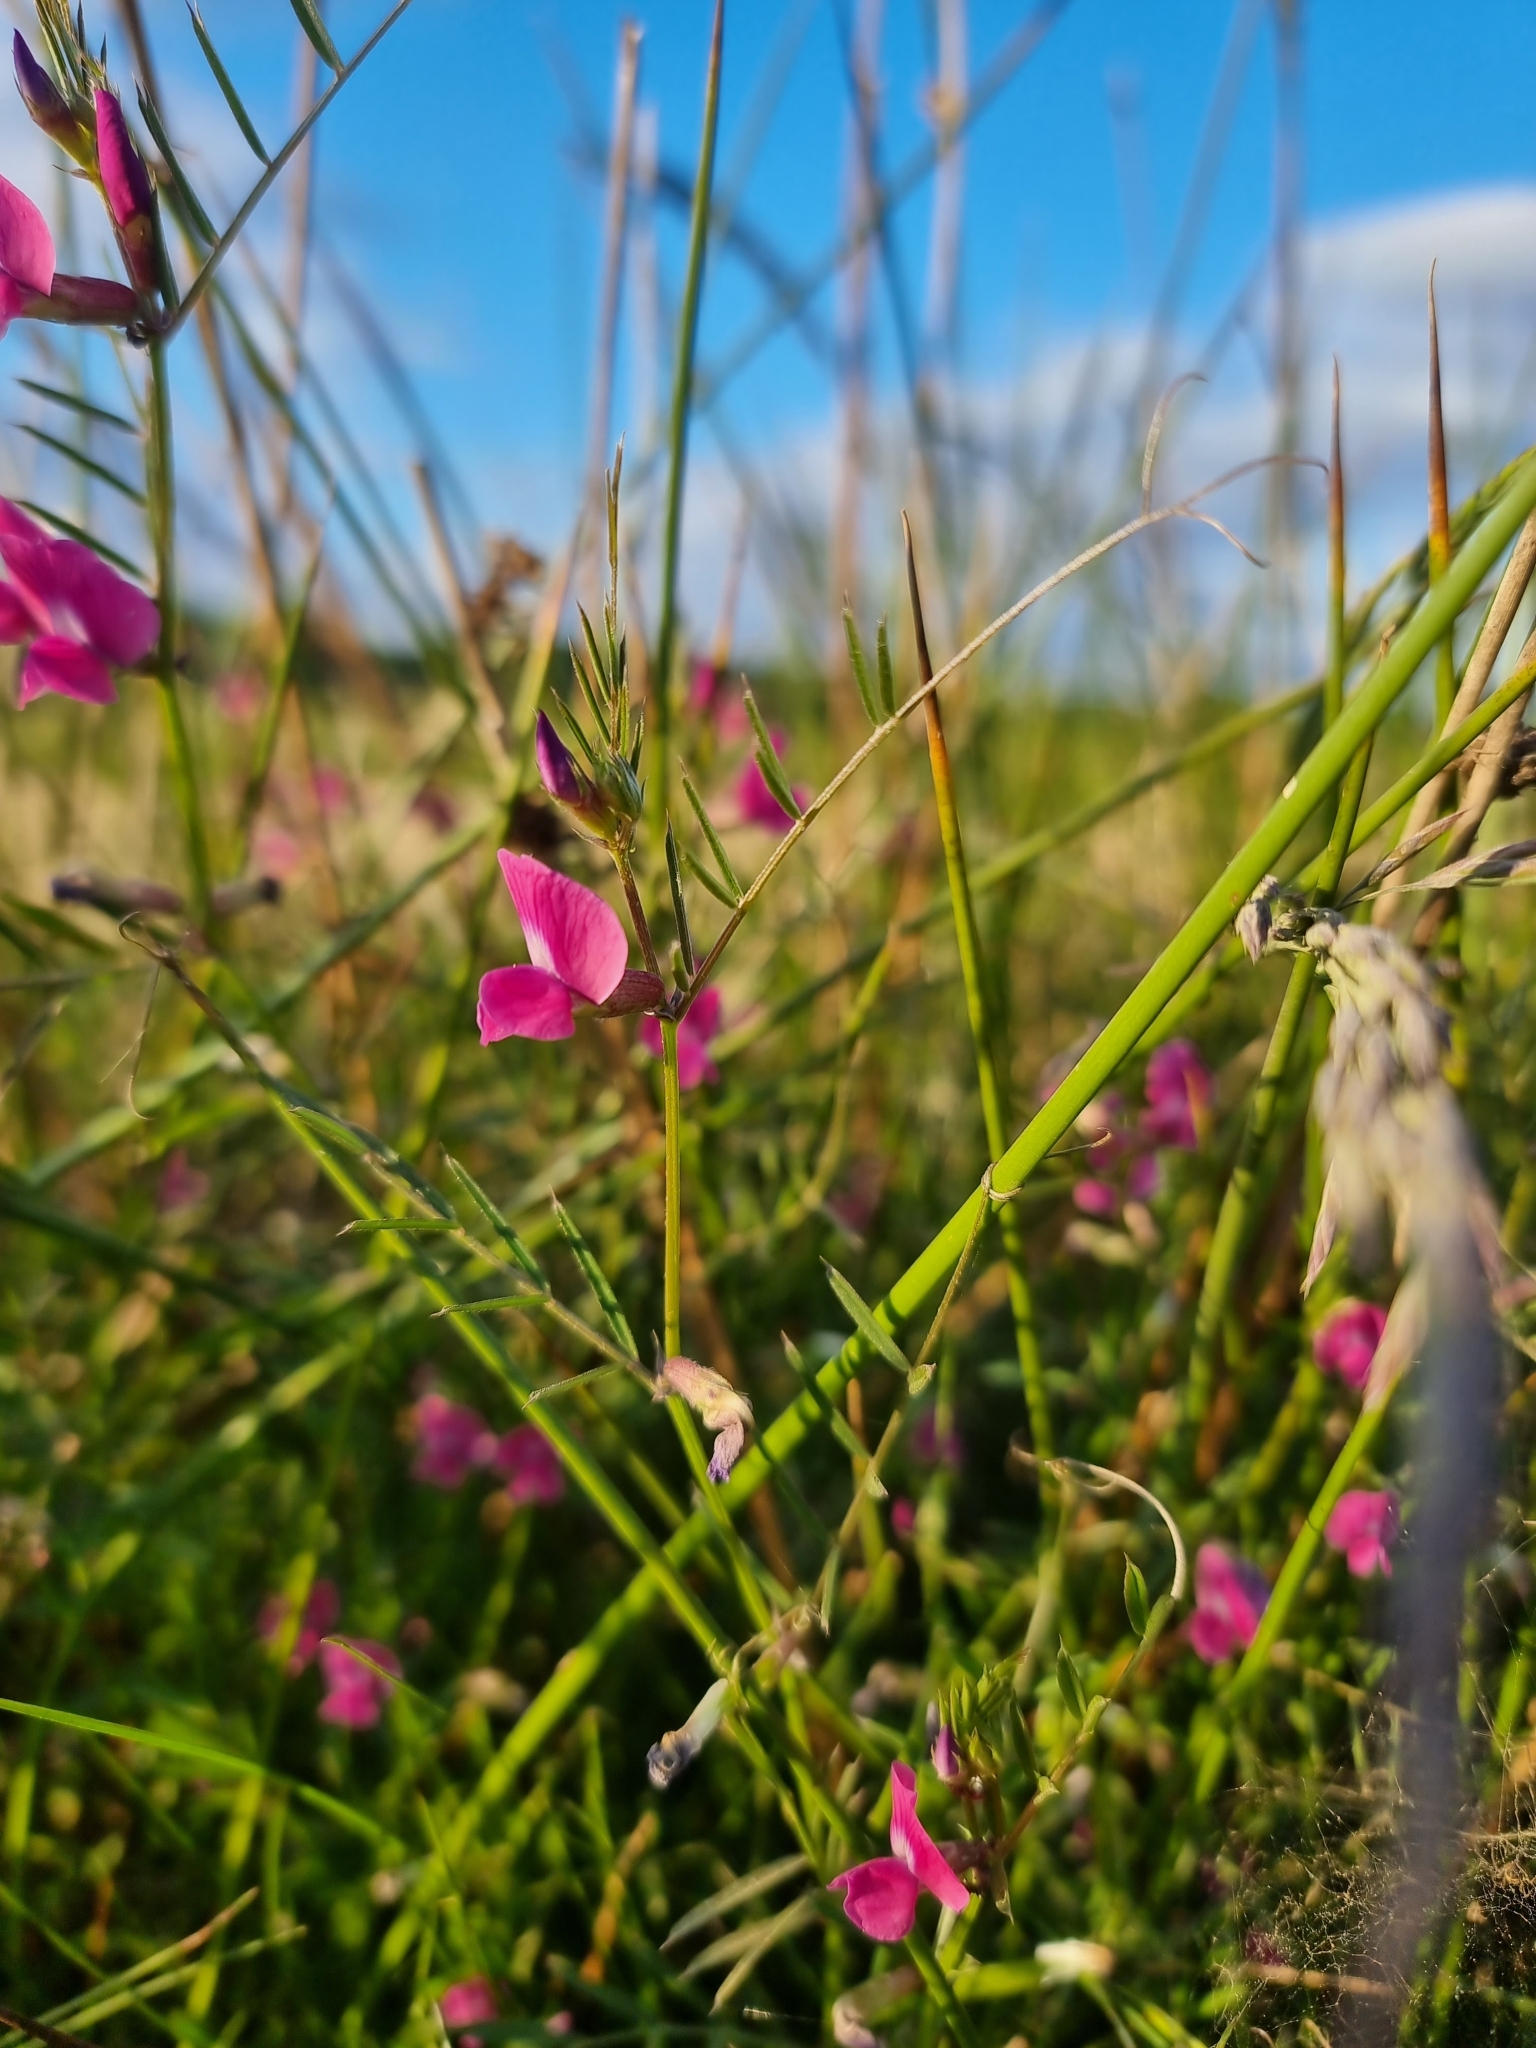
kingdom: Plantae
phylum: Tracheophyta
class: Magnoliopsida
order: Fabales
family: Fabaceae
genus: Vicia
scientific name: Vicia sativa
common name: Garden vetch
